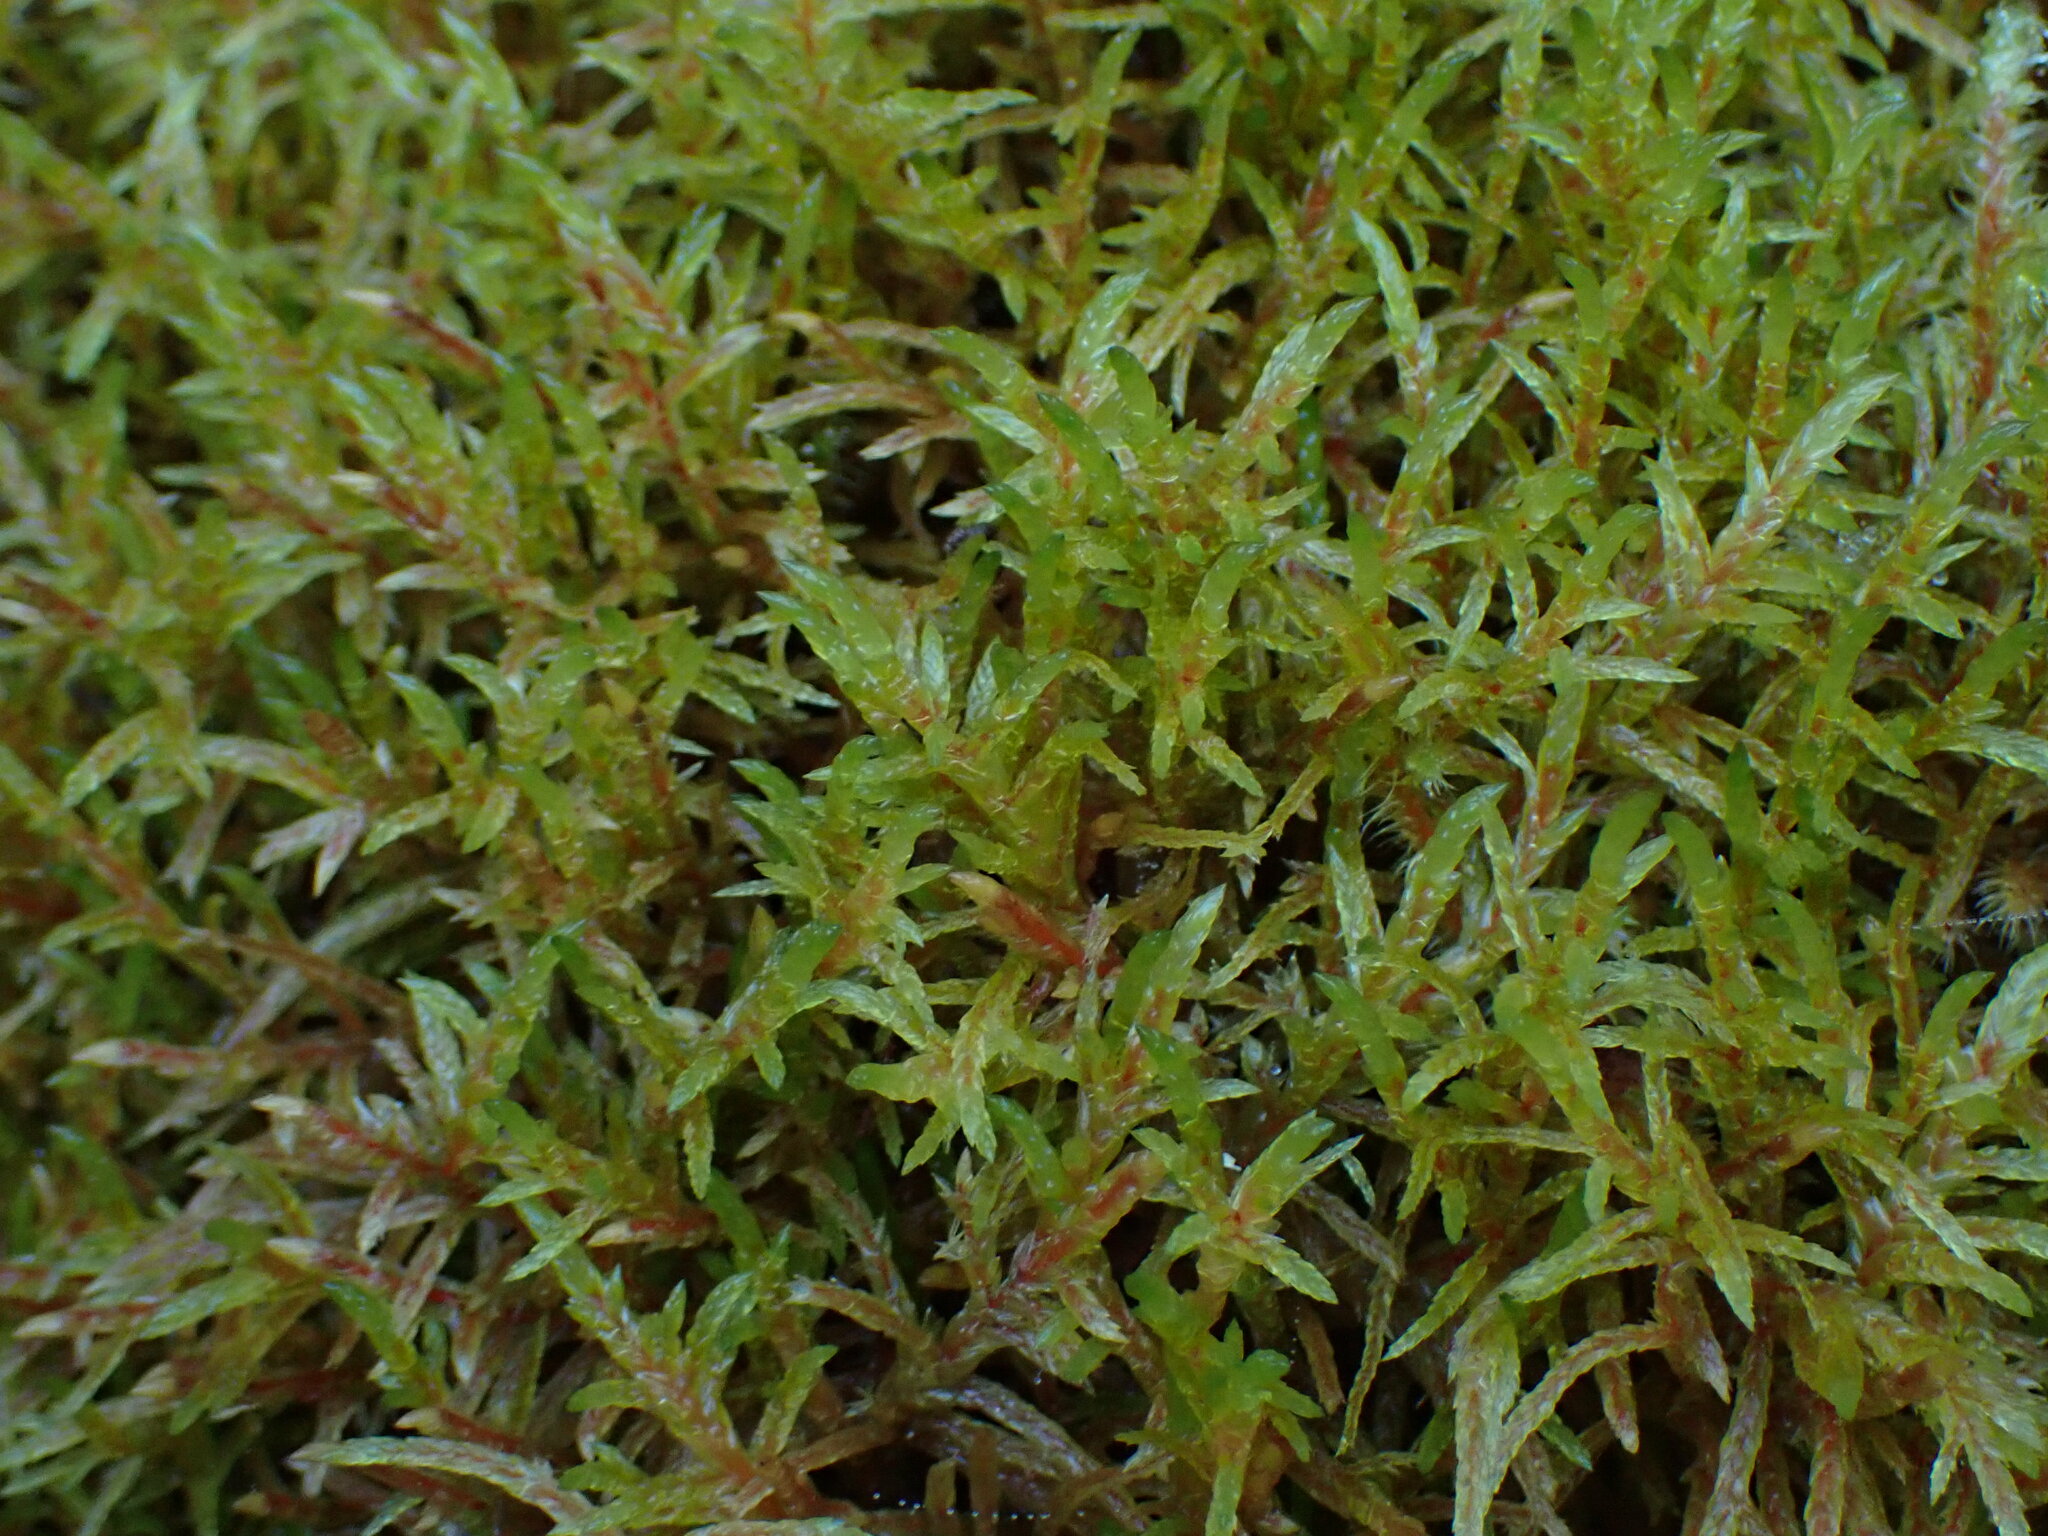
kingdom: Plantae
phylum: Bryophyta
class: Bryopsida
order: Hypnales
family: Hylocomiaceae
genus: Pleurozium
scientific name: Pleurozium schreberi
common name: Red-stemmed feather moss
